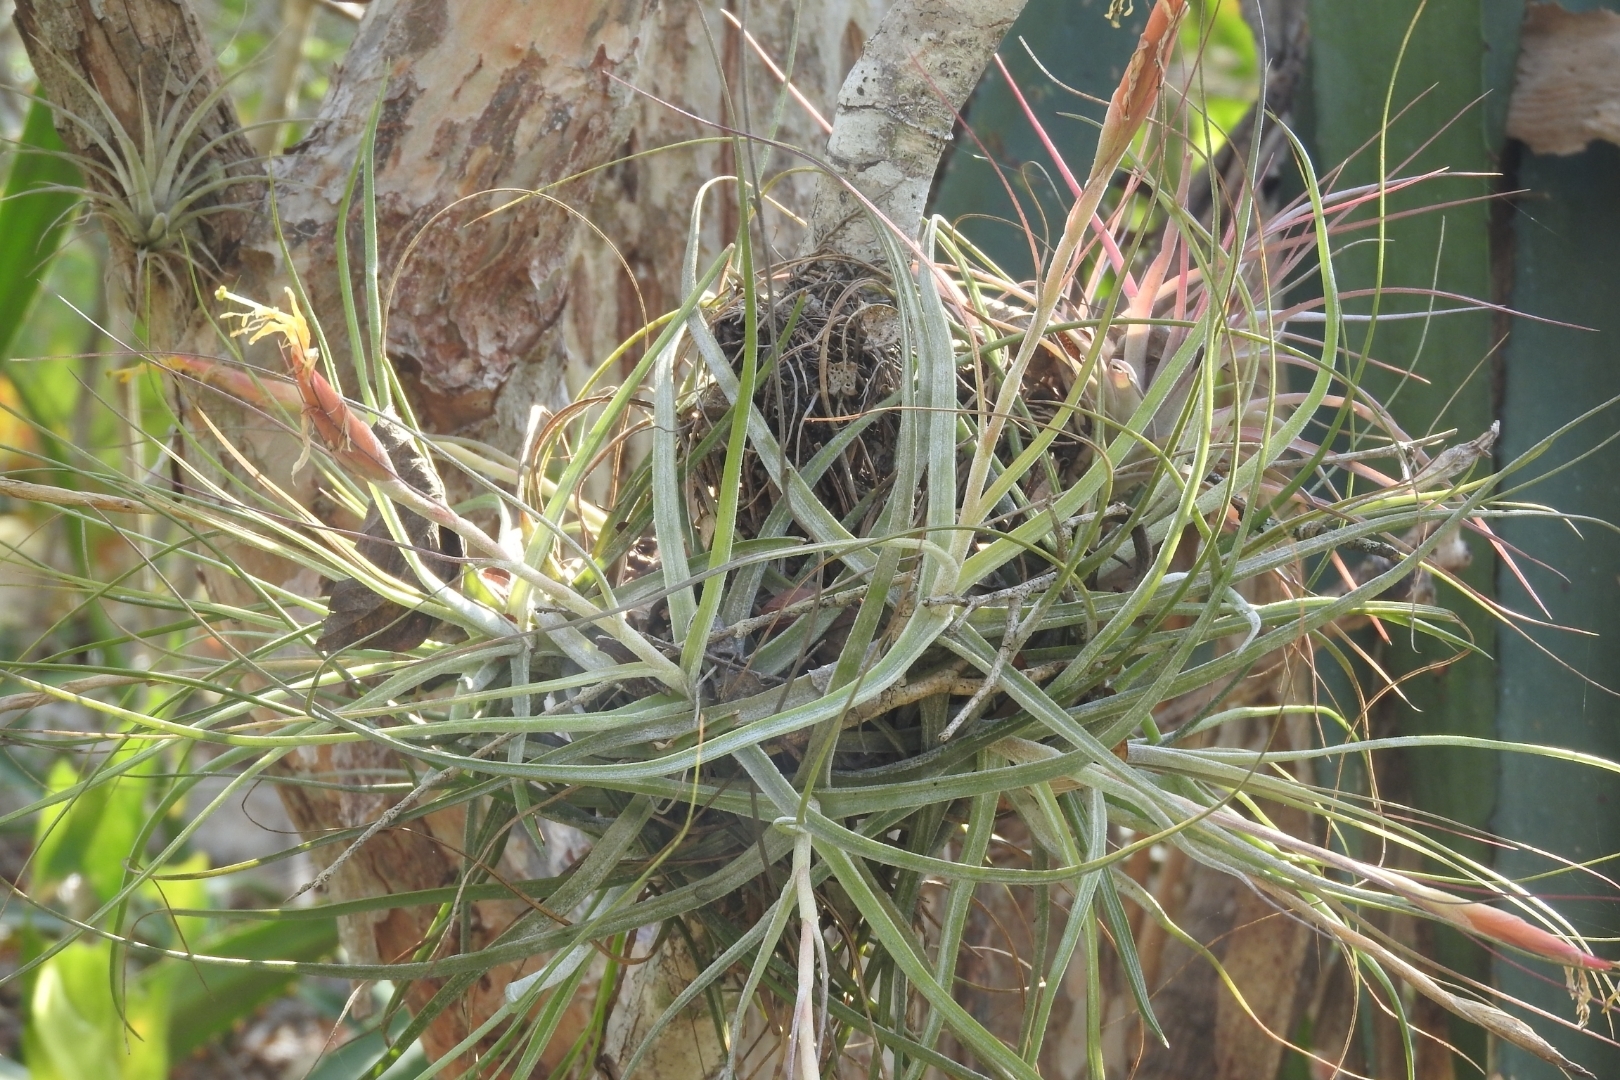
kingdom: Plantae
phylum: Tracheophyta
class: Liliopsida
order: Poales
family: Bromeliaceae
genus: Tillandsia
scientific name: Tillandsia schiedeana
